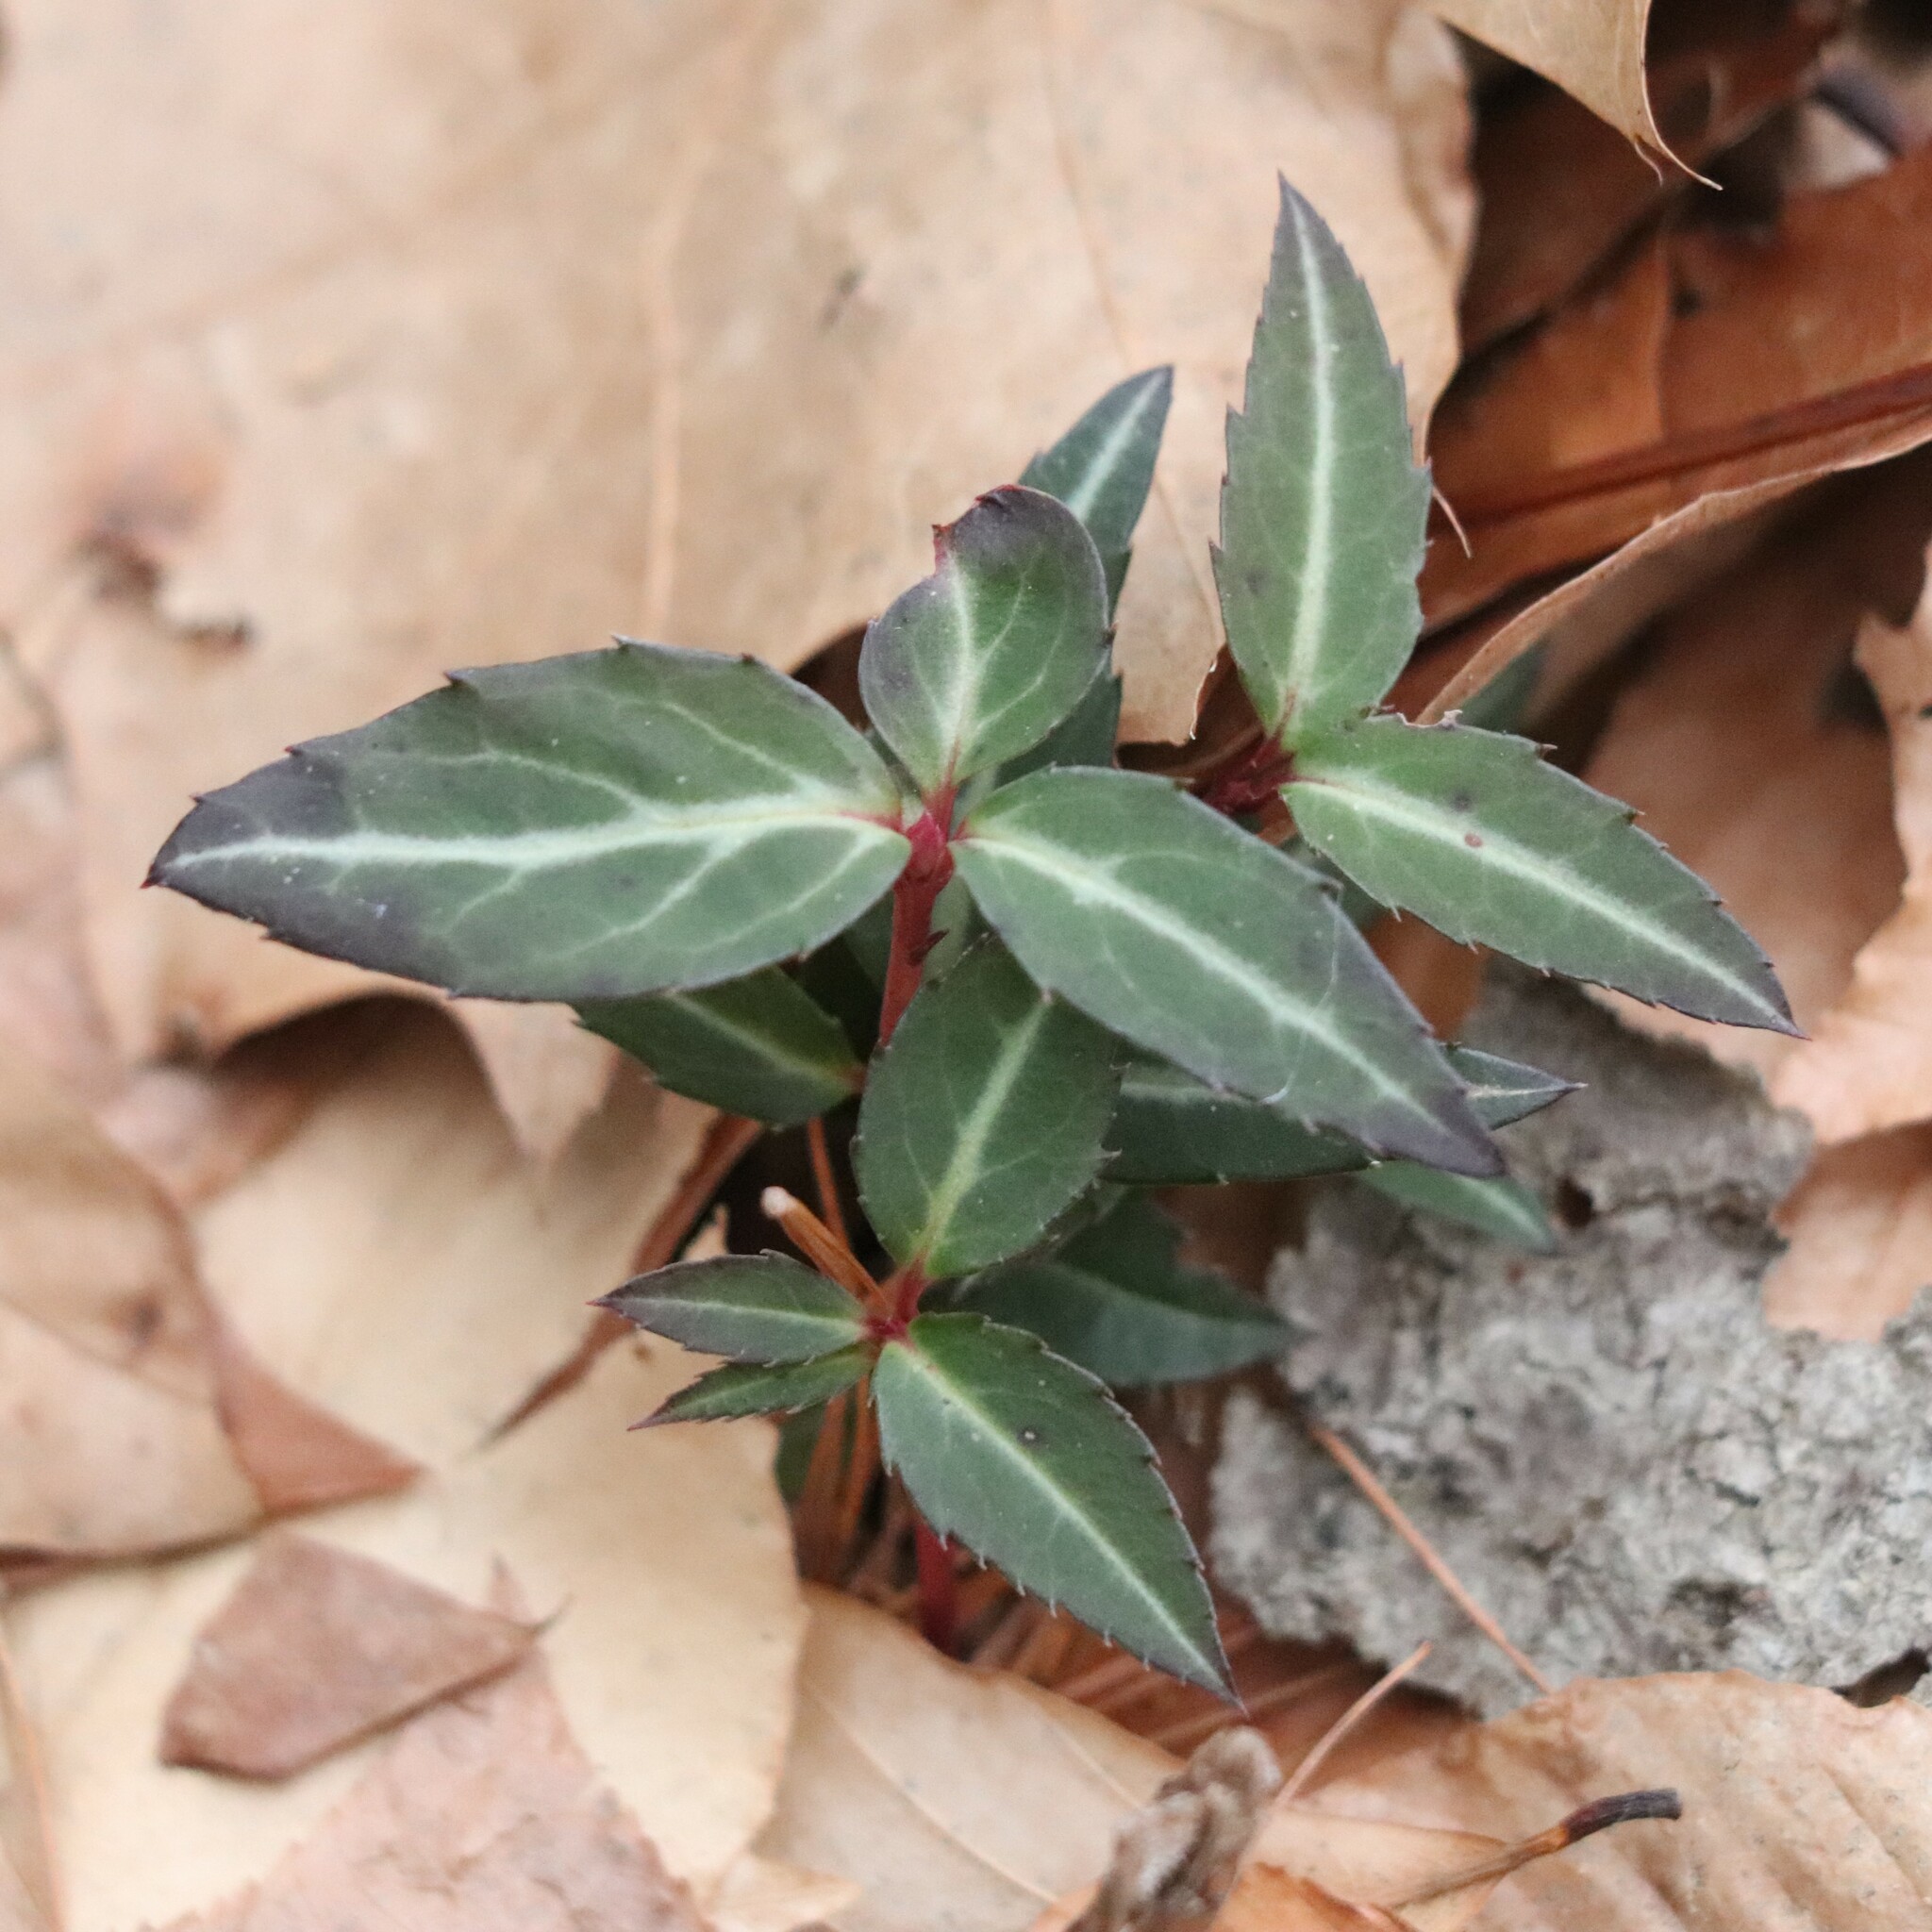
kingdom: Plantae
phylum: Tracheophyta
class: Magnoliopsida
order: Ericales
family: Ericaceae
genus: Chimaphila
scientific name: Chimaphila maculata
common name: Spotted pipsissewa
